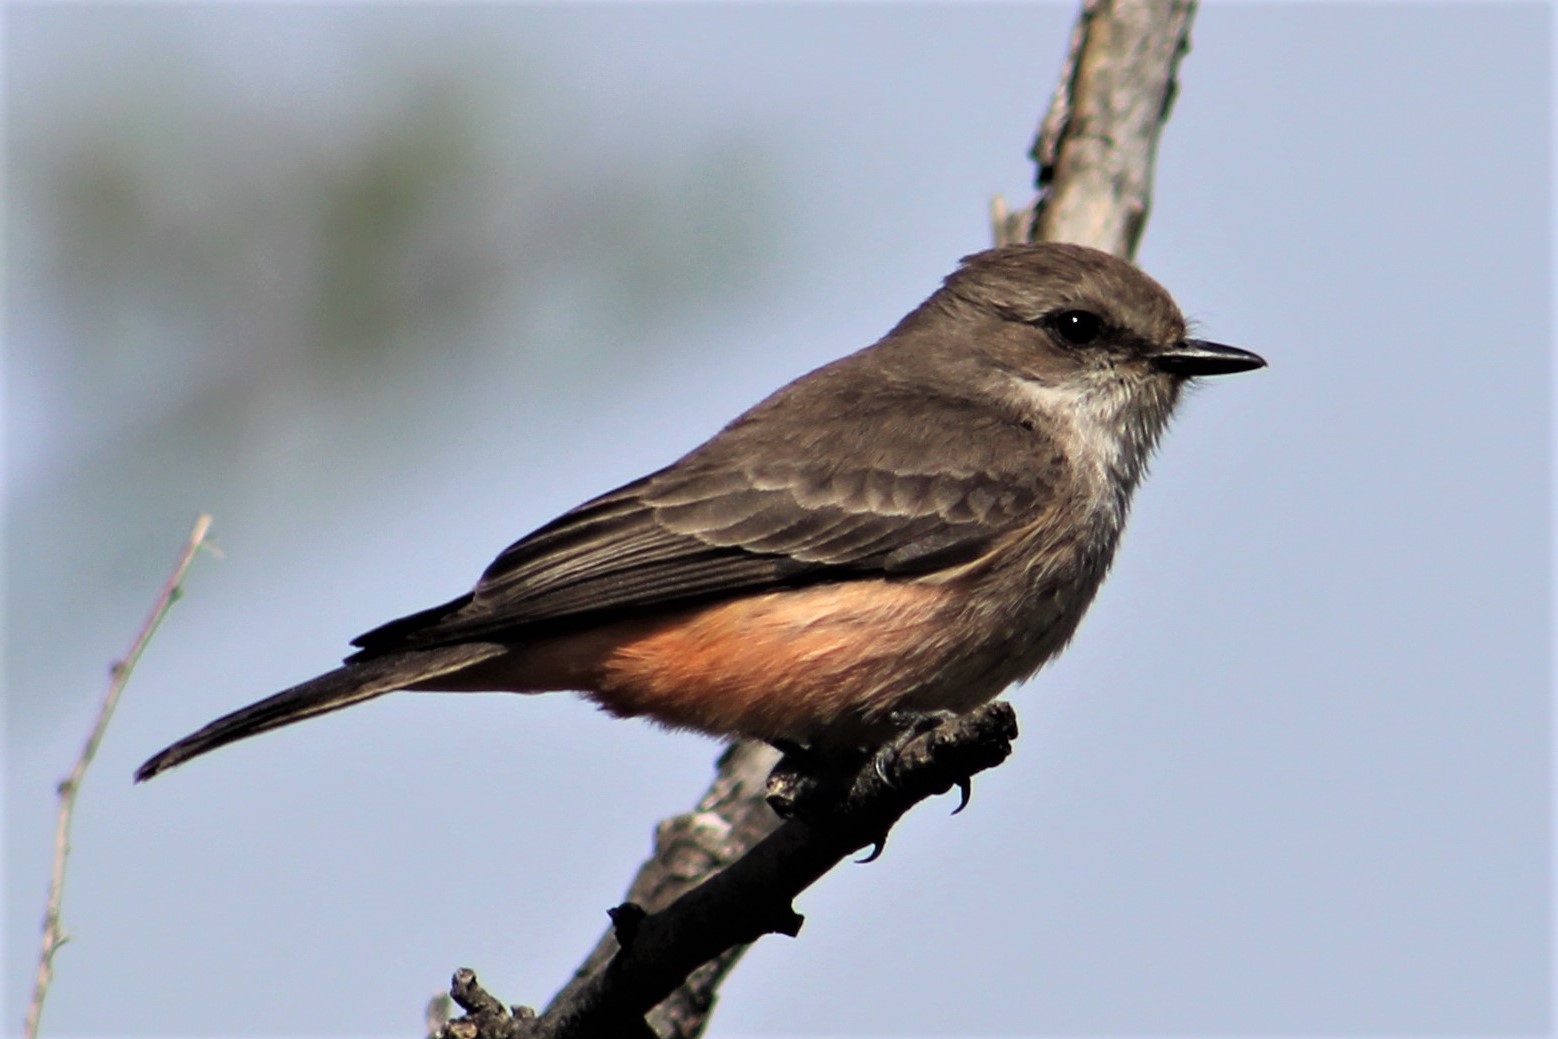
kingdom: Animalia
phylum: Chordata
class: Aves
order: Passeriformes
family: Tyrannidae
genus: Pyrocephalus
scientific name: Pyrocephalus rubinus
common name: Vermilion flycatcher
